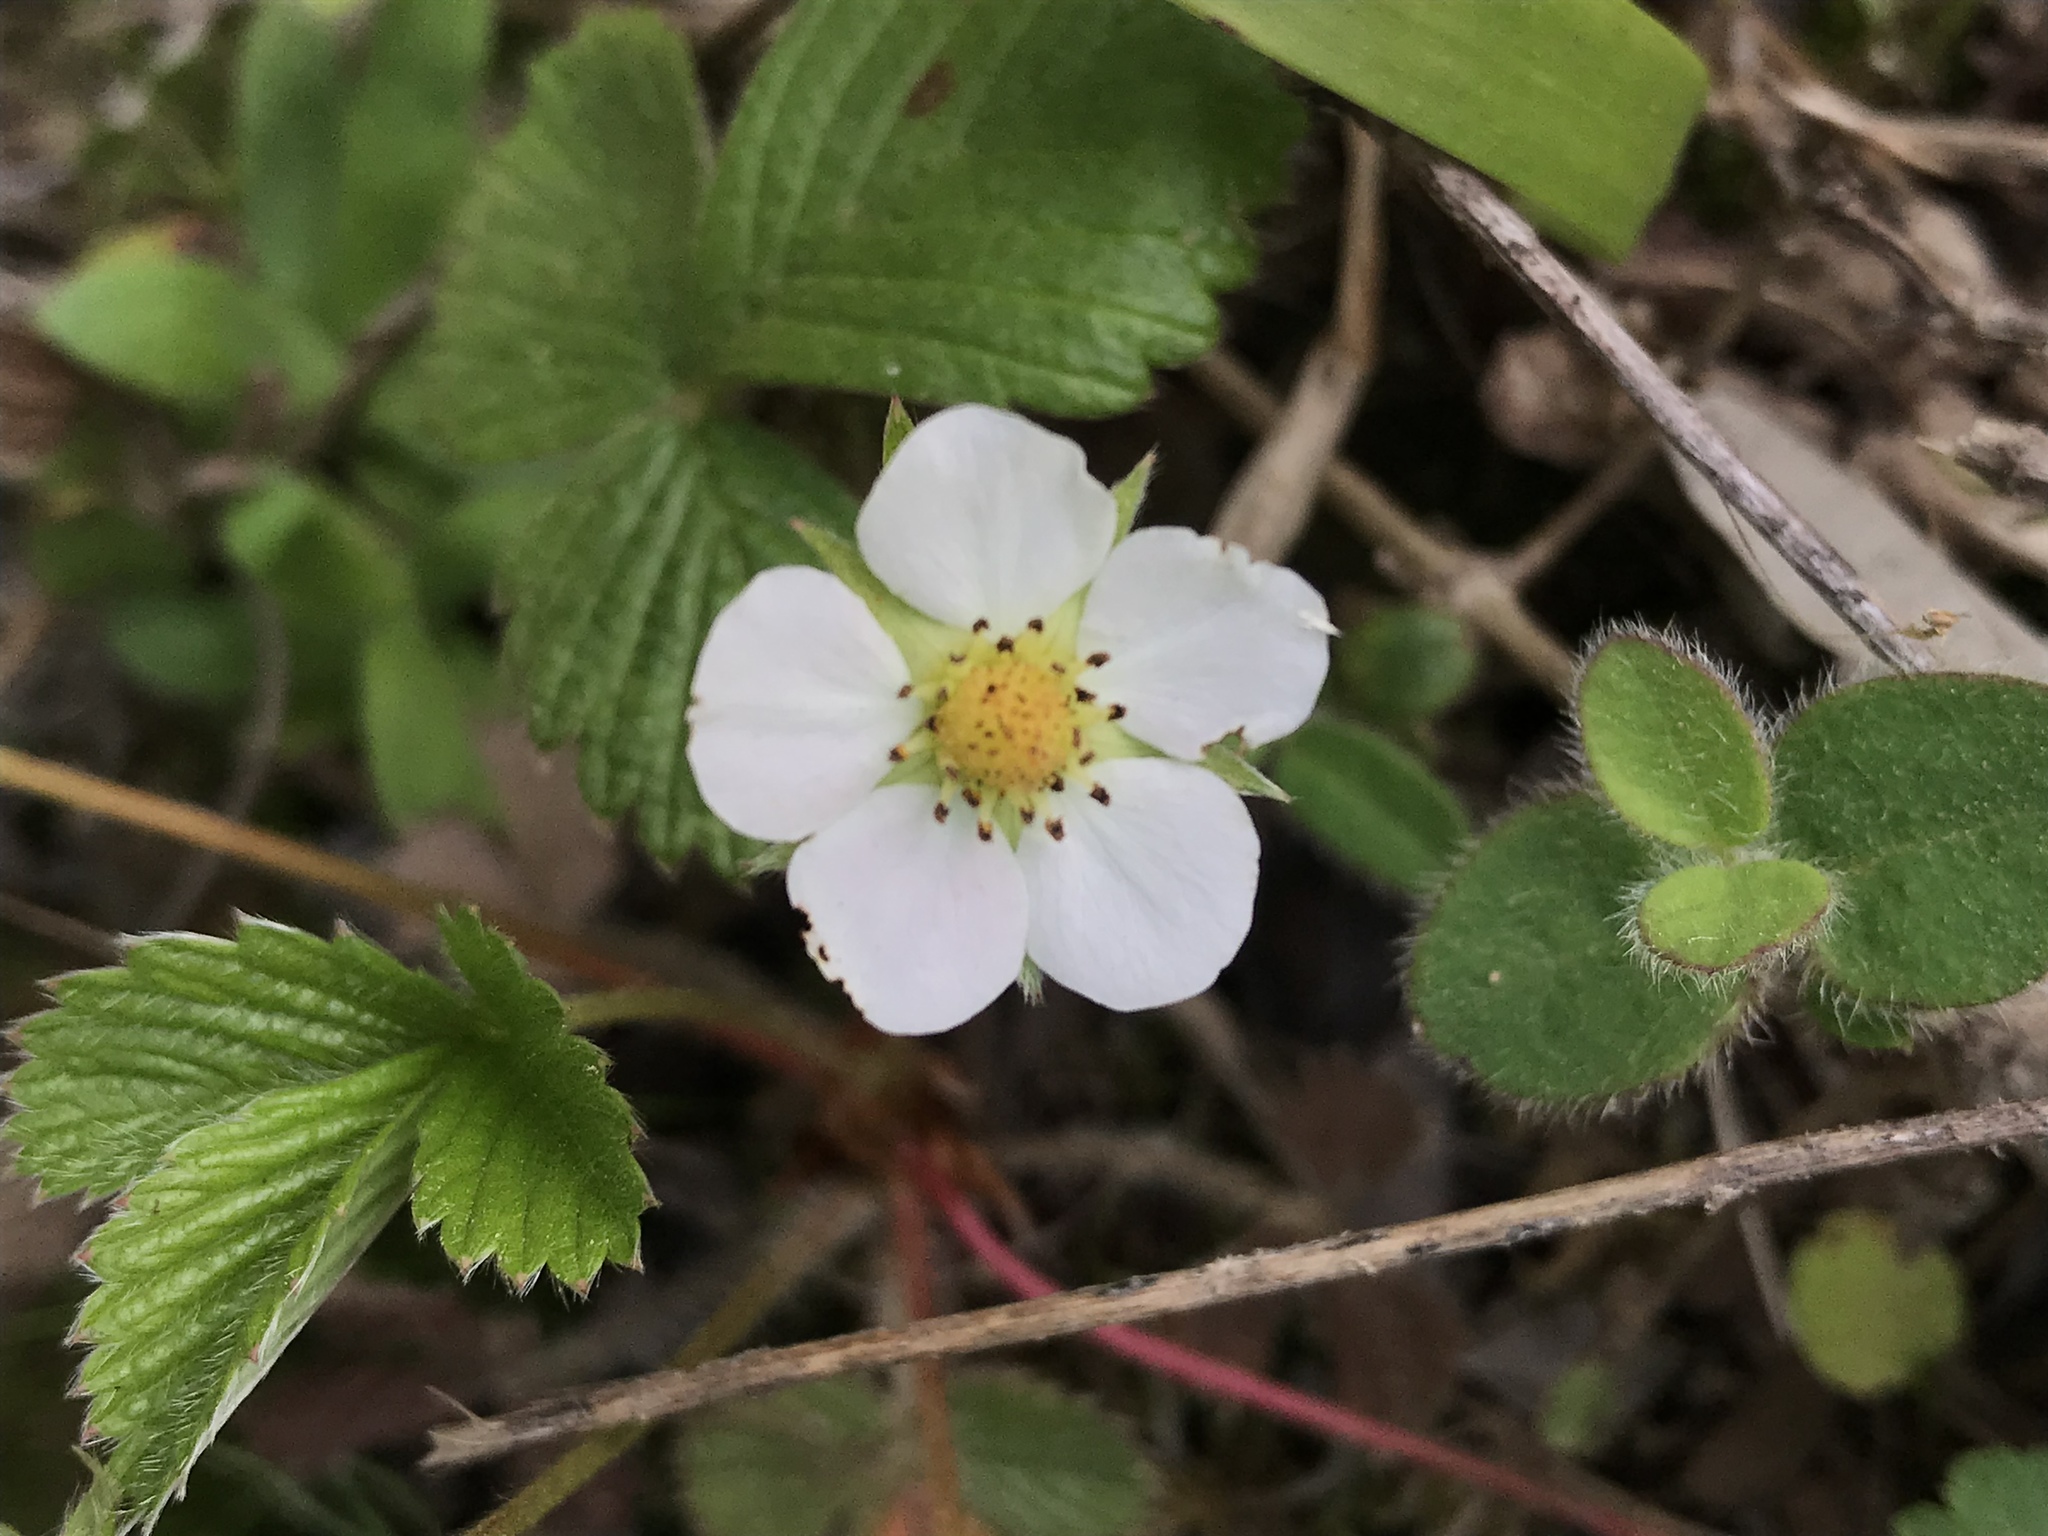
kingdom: Plantae
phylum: Tracheophyta
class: Magnoliopsida
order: Rosales
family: Rosaceae
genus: Fragaria
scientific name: Fragaria vesca
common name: Wild strawberry
